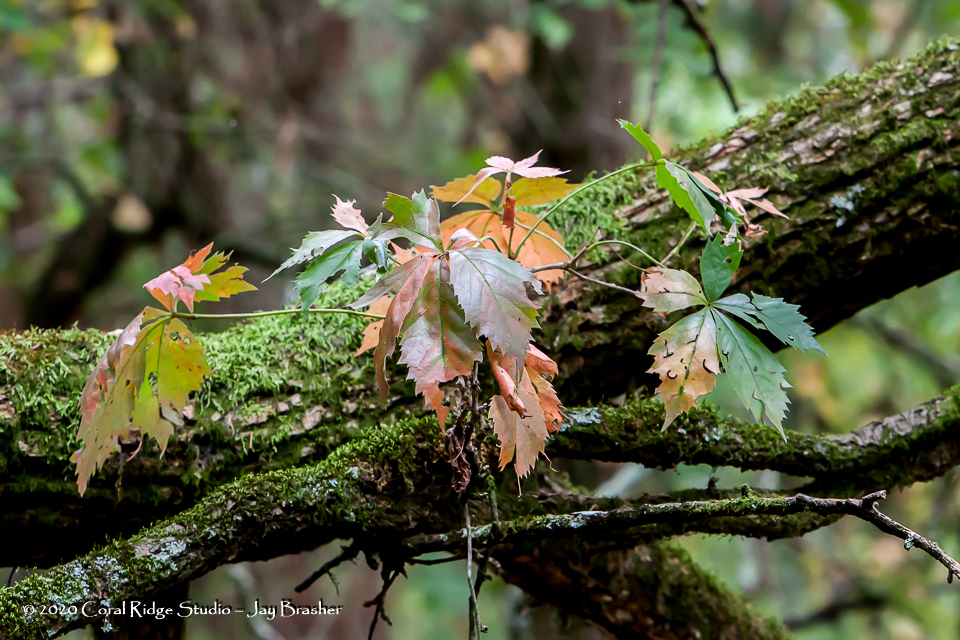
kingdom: Plantae
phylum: Tracheophyta
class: Magnoliopsida
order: Vitales
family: Vitaceae
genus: Parthenocissus
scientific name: Parthenocissus quinquefolia
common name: Virginia-creeper
